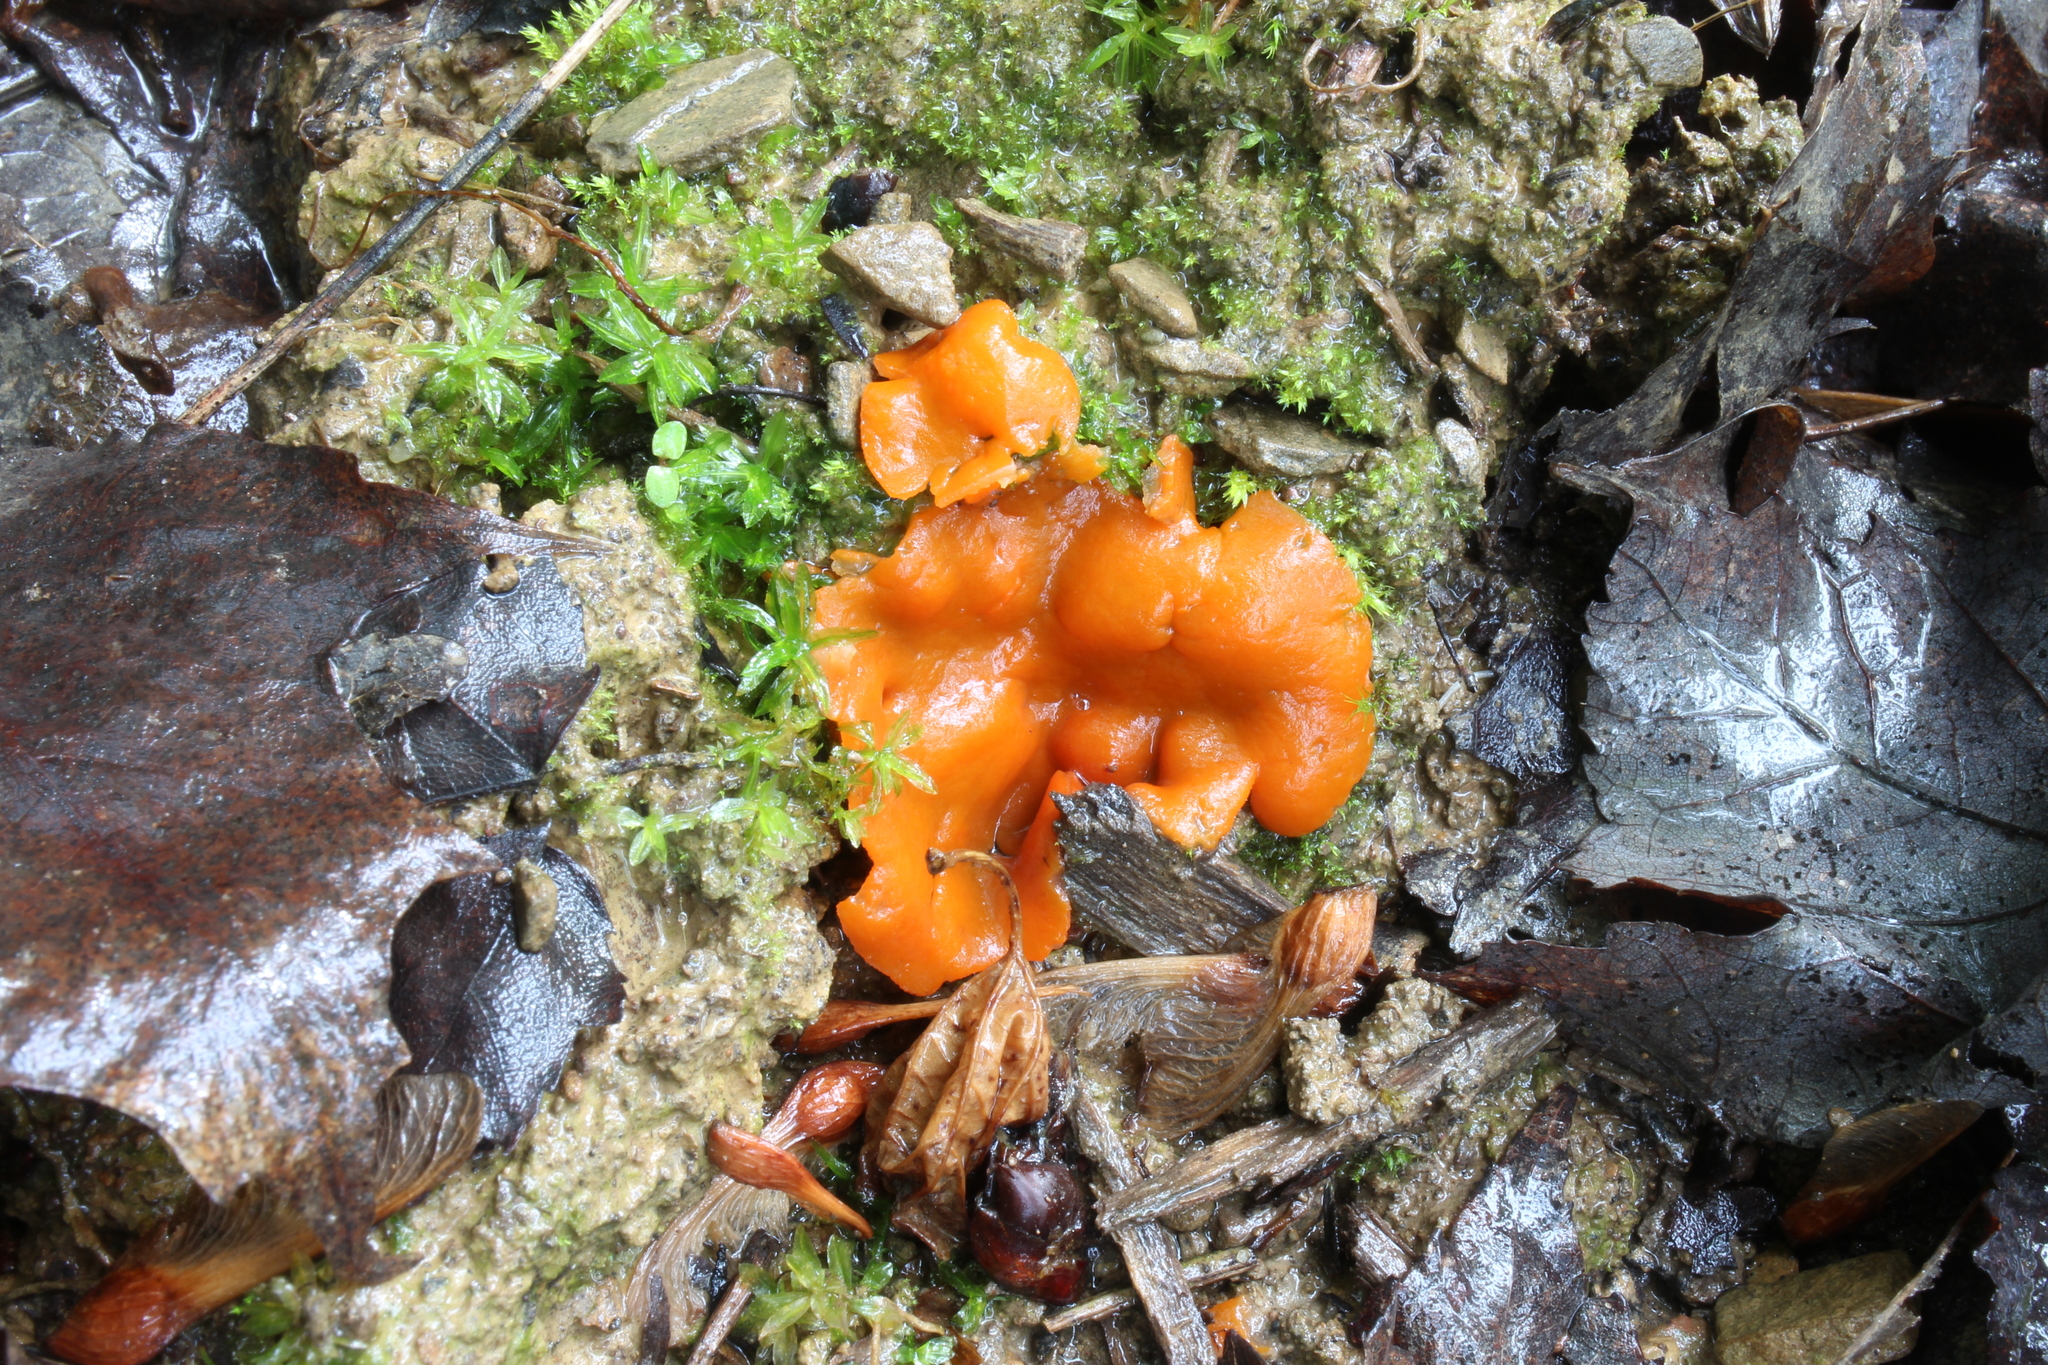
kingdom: Fungi
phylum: Ascomycota
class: Pezizomycetes
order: Pezizales
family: Pyronemataceae
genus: Aleuria
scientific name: Aleuria aurantia
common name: Orange peel fungus
